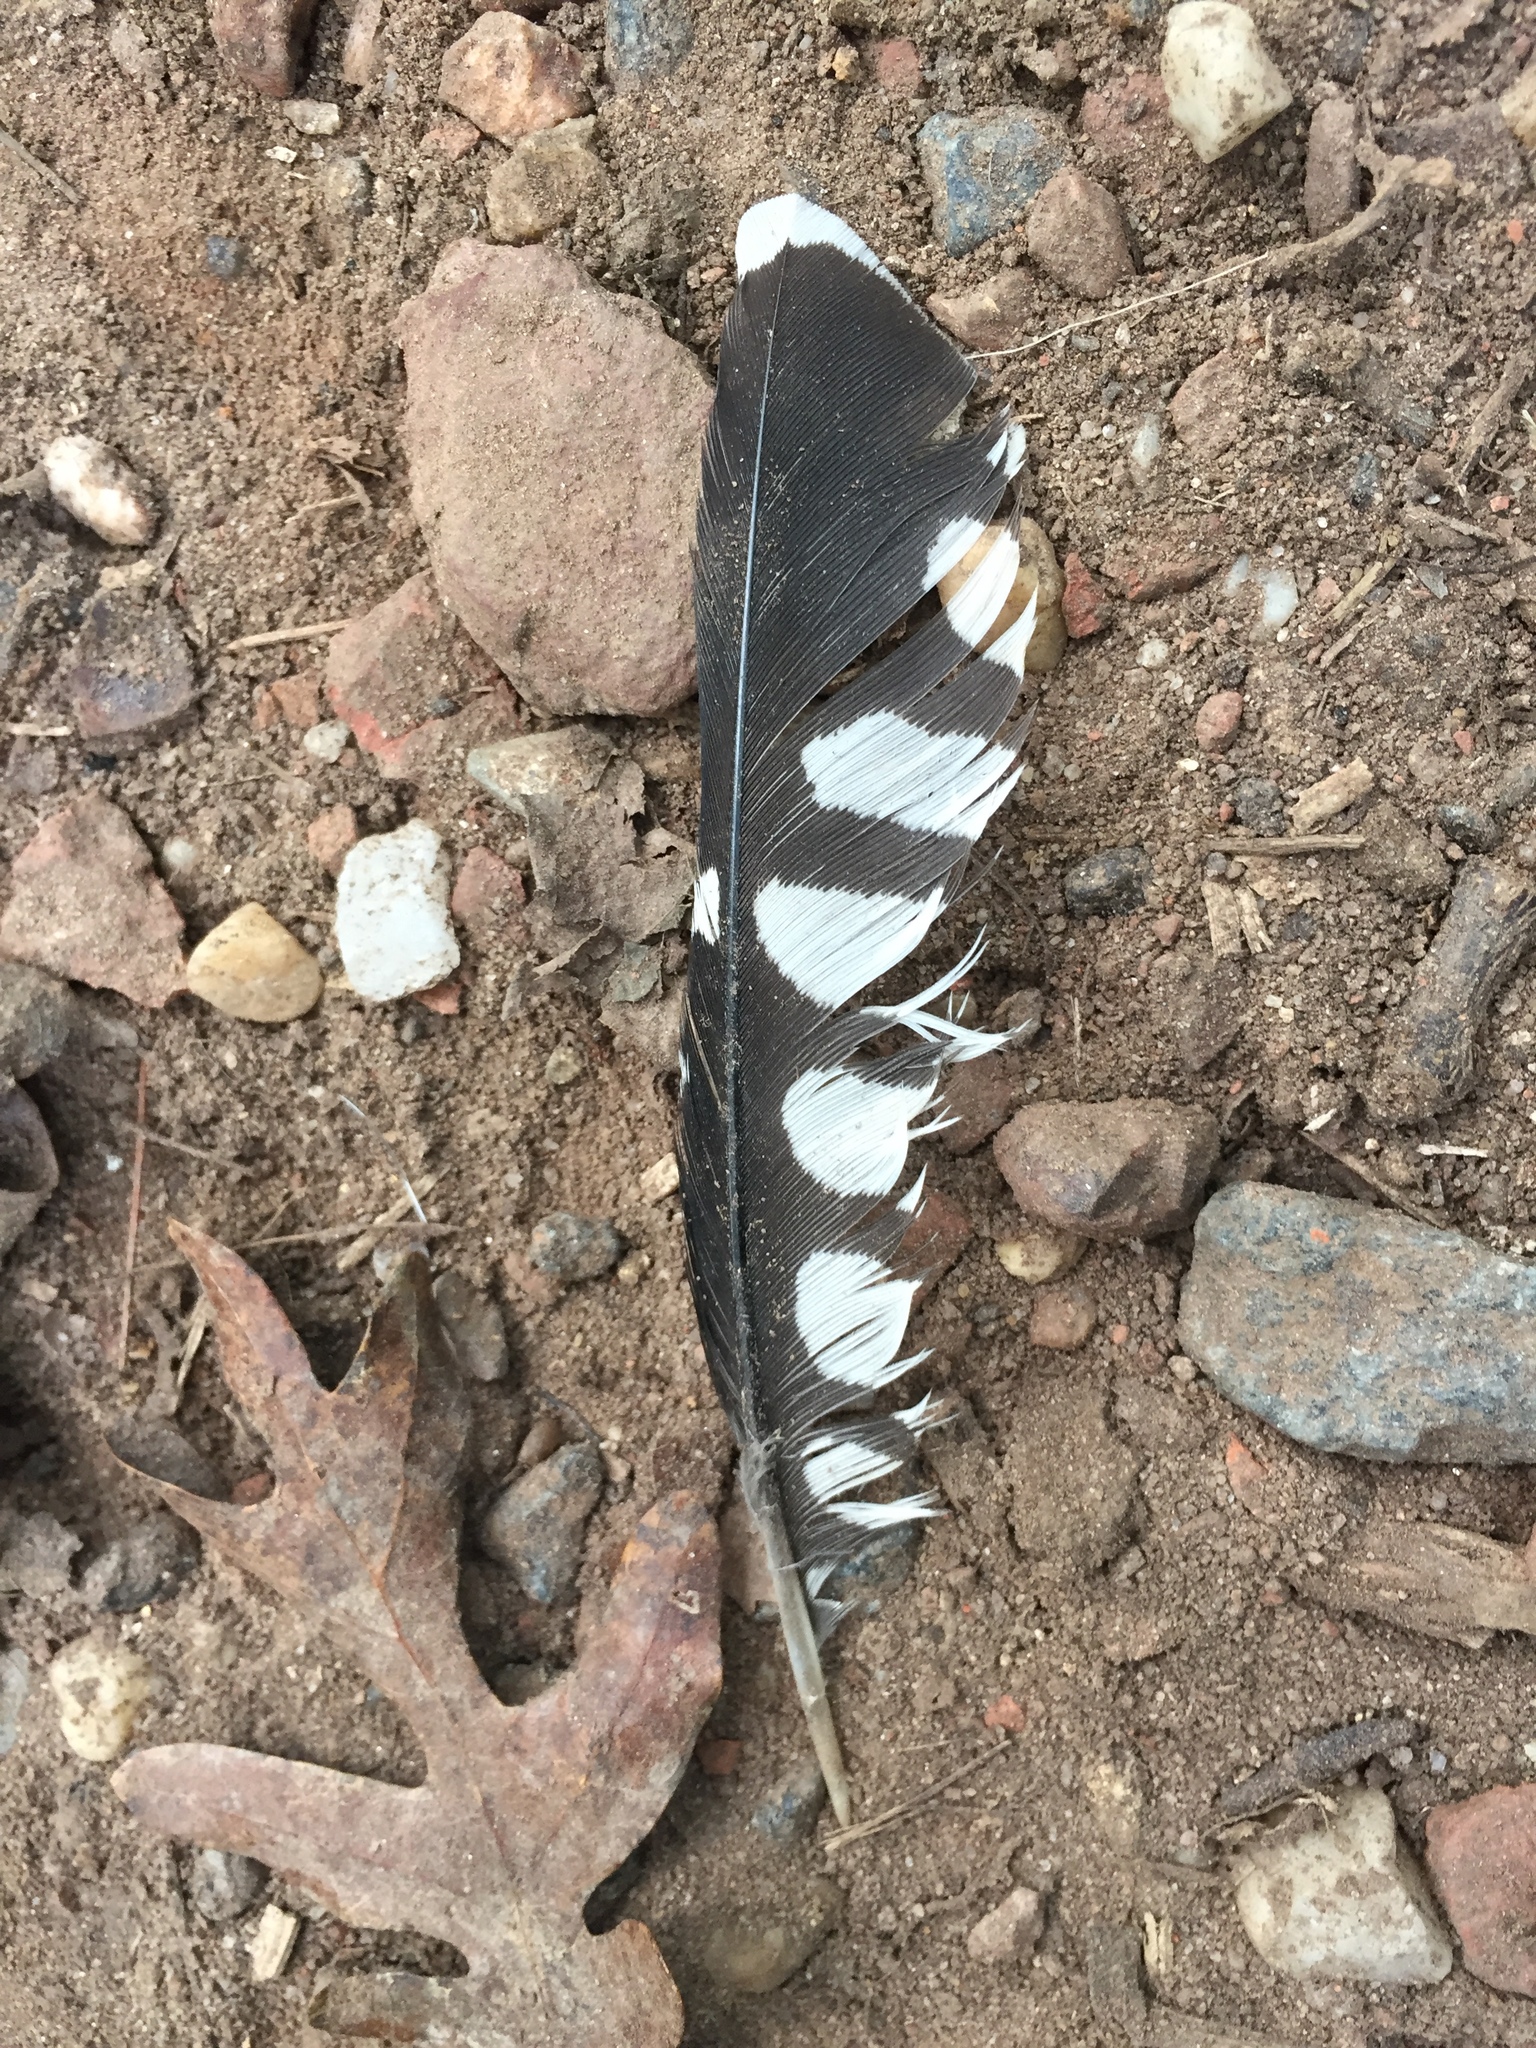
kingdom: Animalia
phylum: Chordata
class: Aves
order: Piciformes
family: Picidae
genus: Melanerpes
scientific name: Melanerpes carolinus
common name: Red-bellied woodpecker
